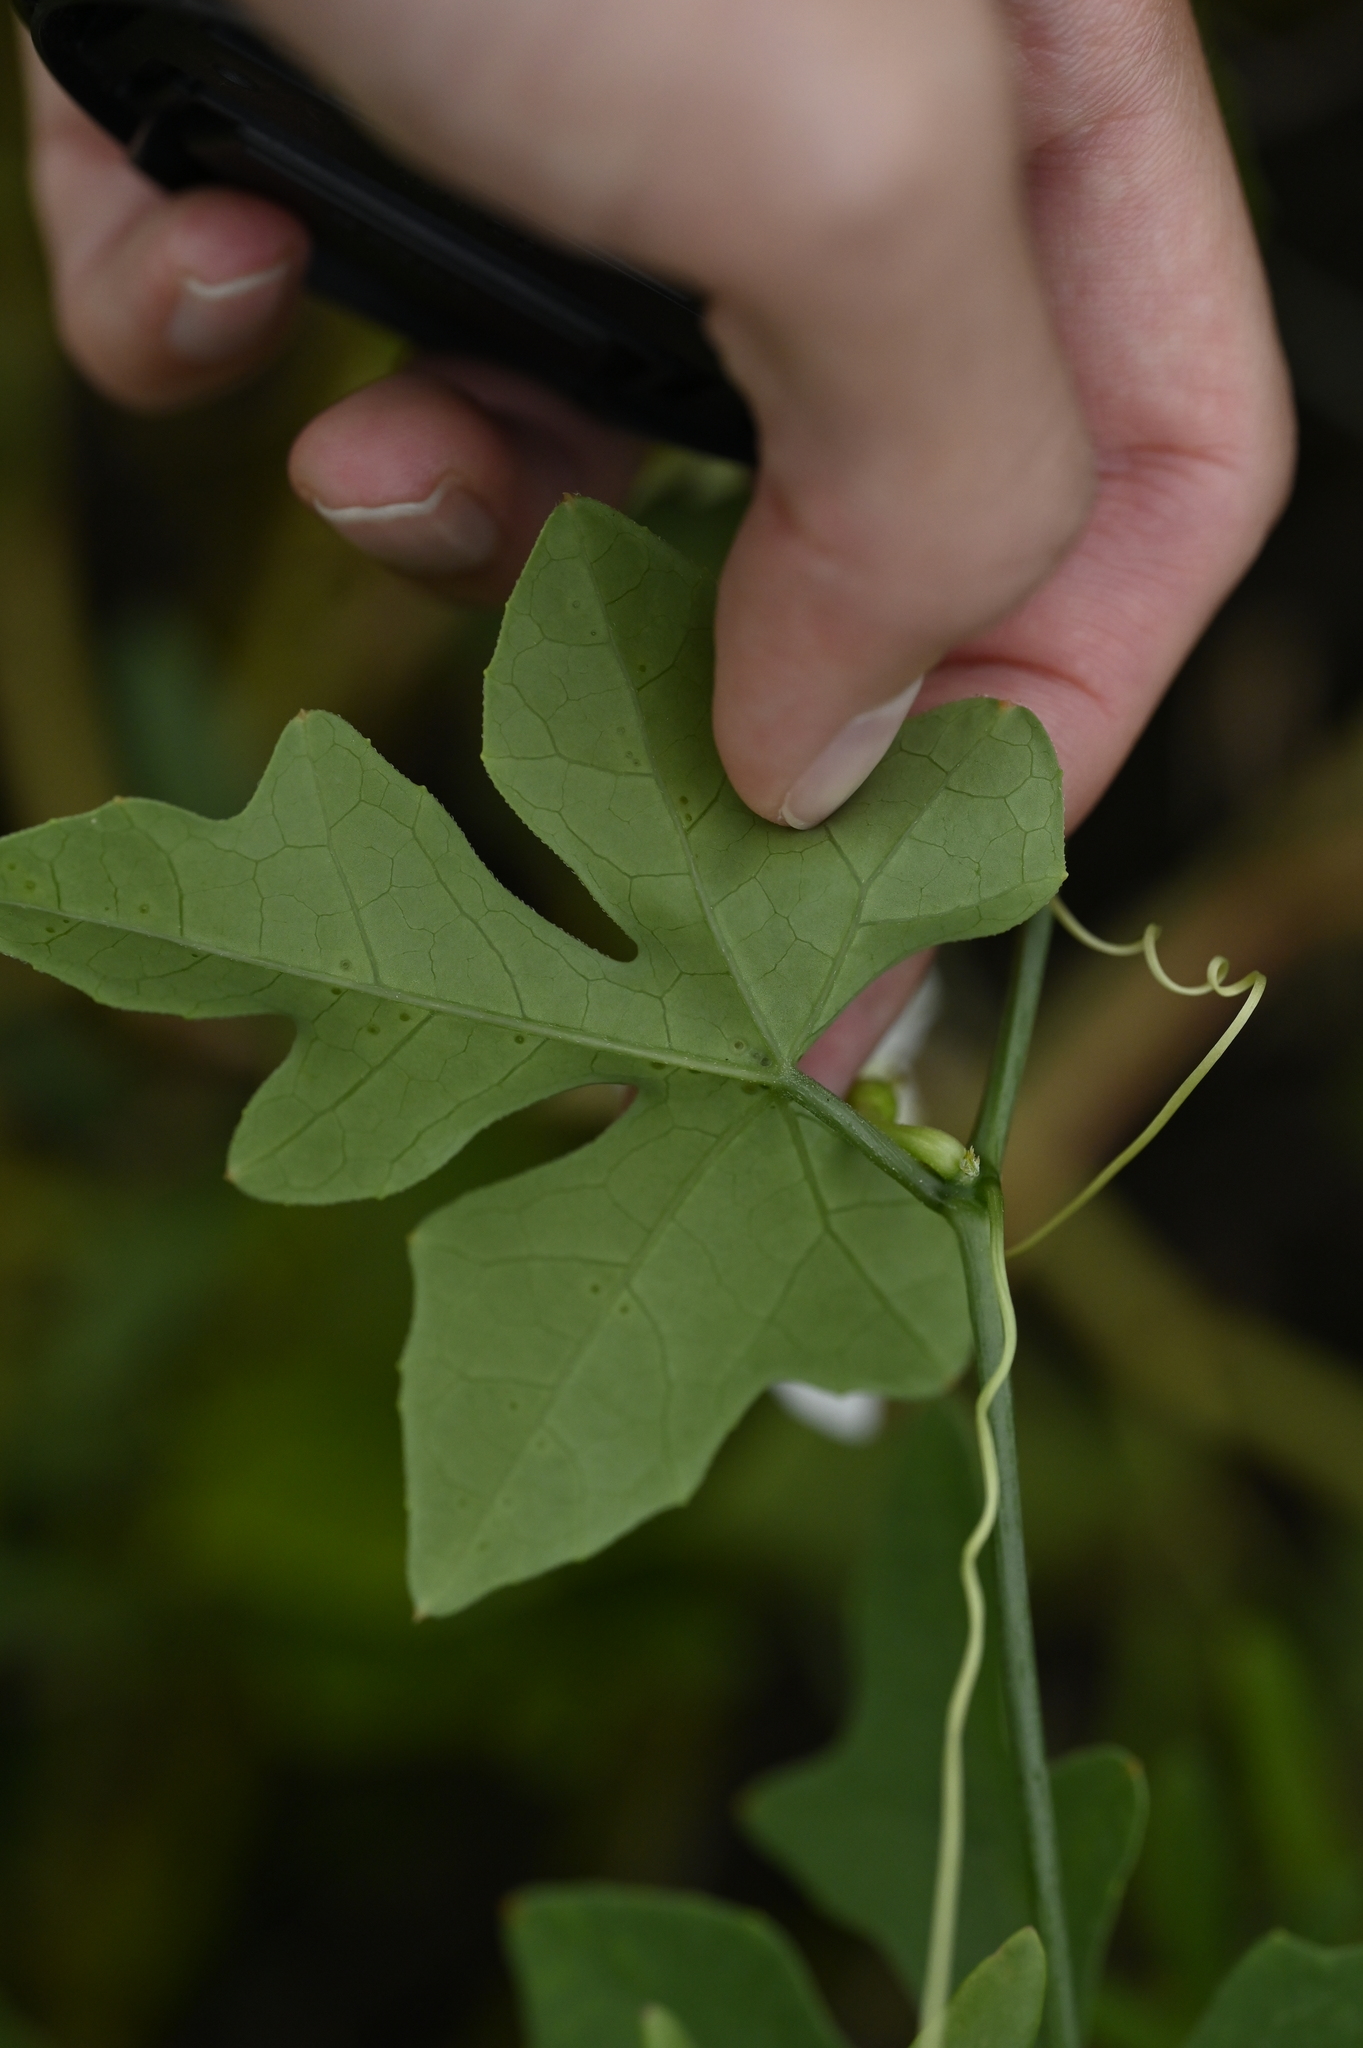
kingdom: Plantae
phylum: Tracheophyta
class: Magnoliopsida
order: Cucurbitales
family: Cucurbitaceae
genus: Coccinia
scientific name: Coccinia grandis
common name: Ivy gourd
